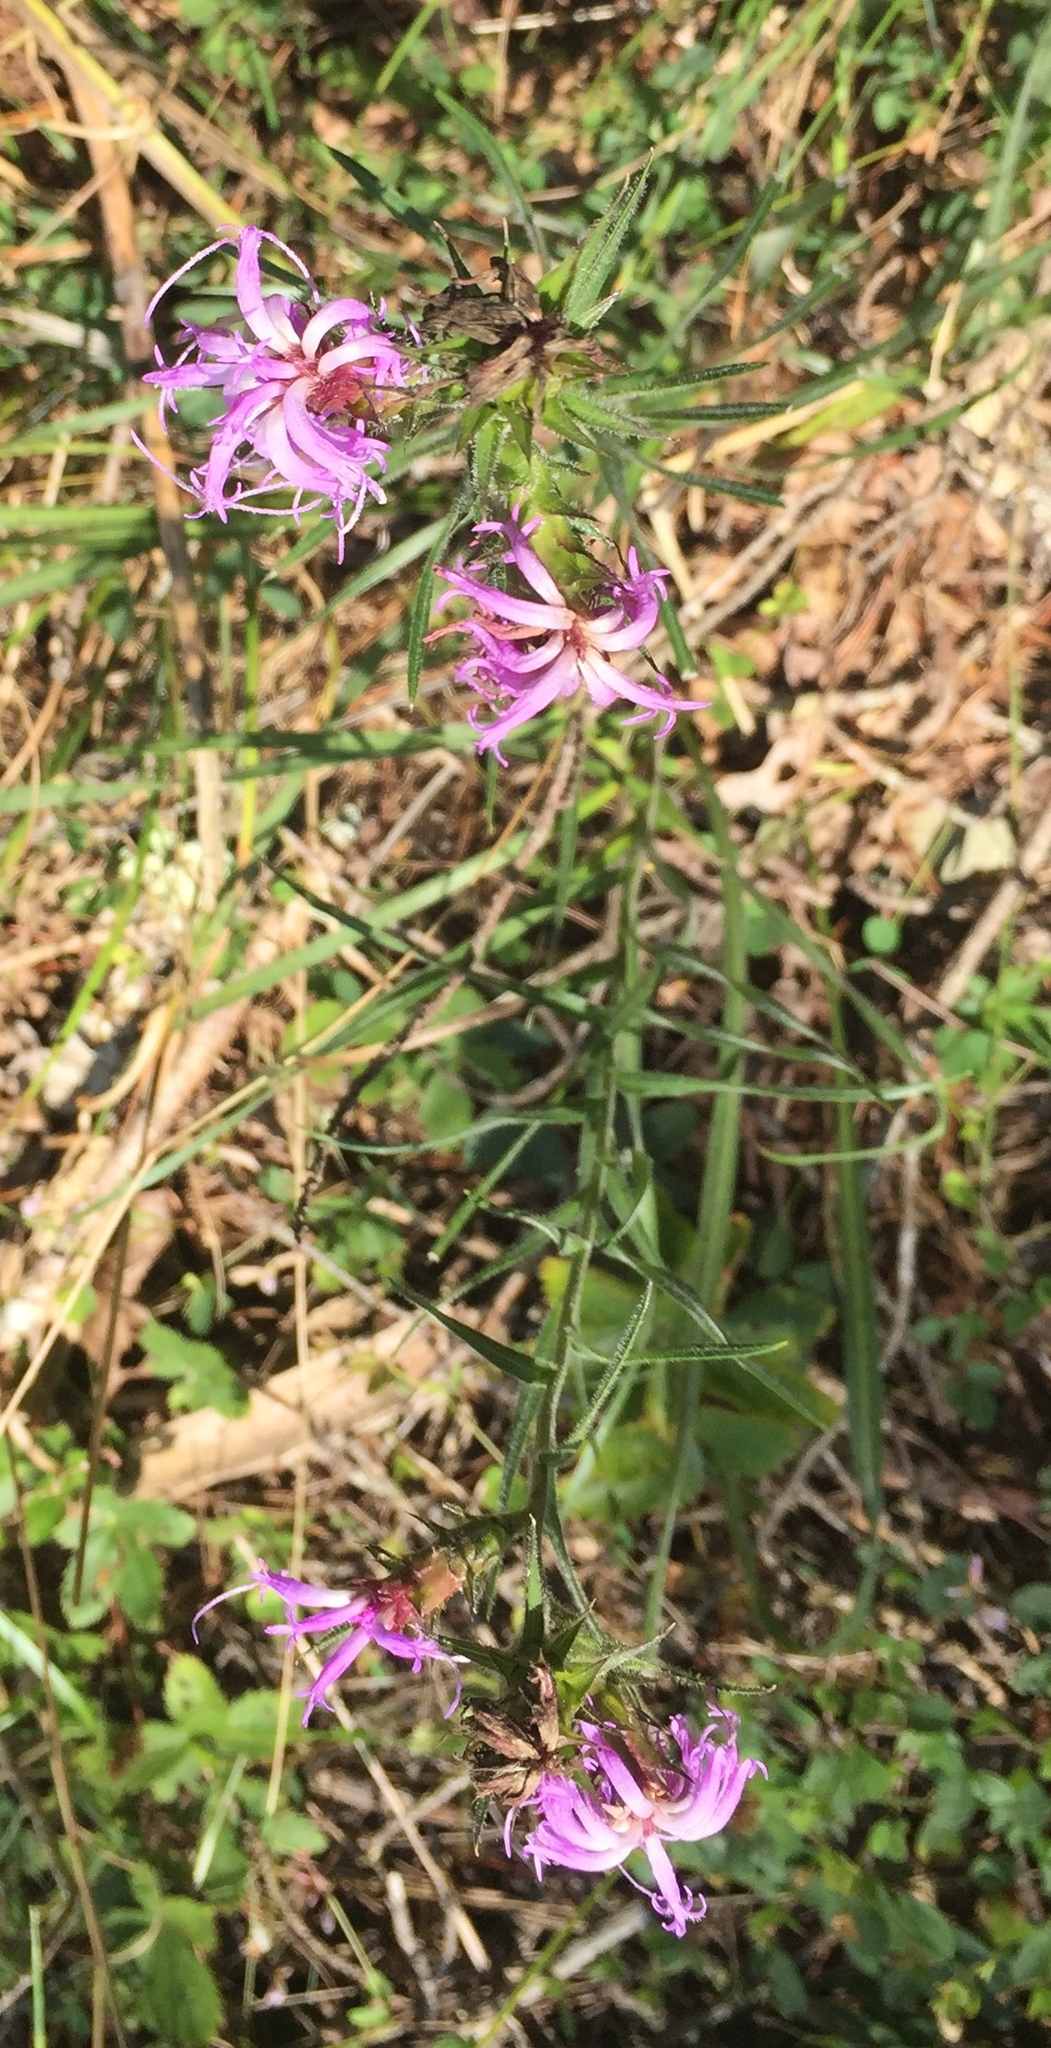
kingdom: Plantae
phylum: Tracheophyta
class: Magnoliopsida
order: Asterales
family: Asteraceae
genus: Liatris
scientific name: Liatris squarrosa
